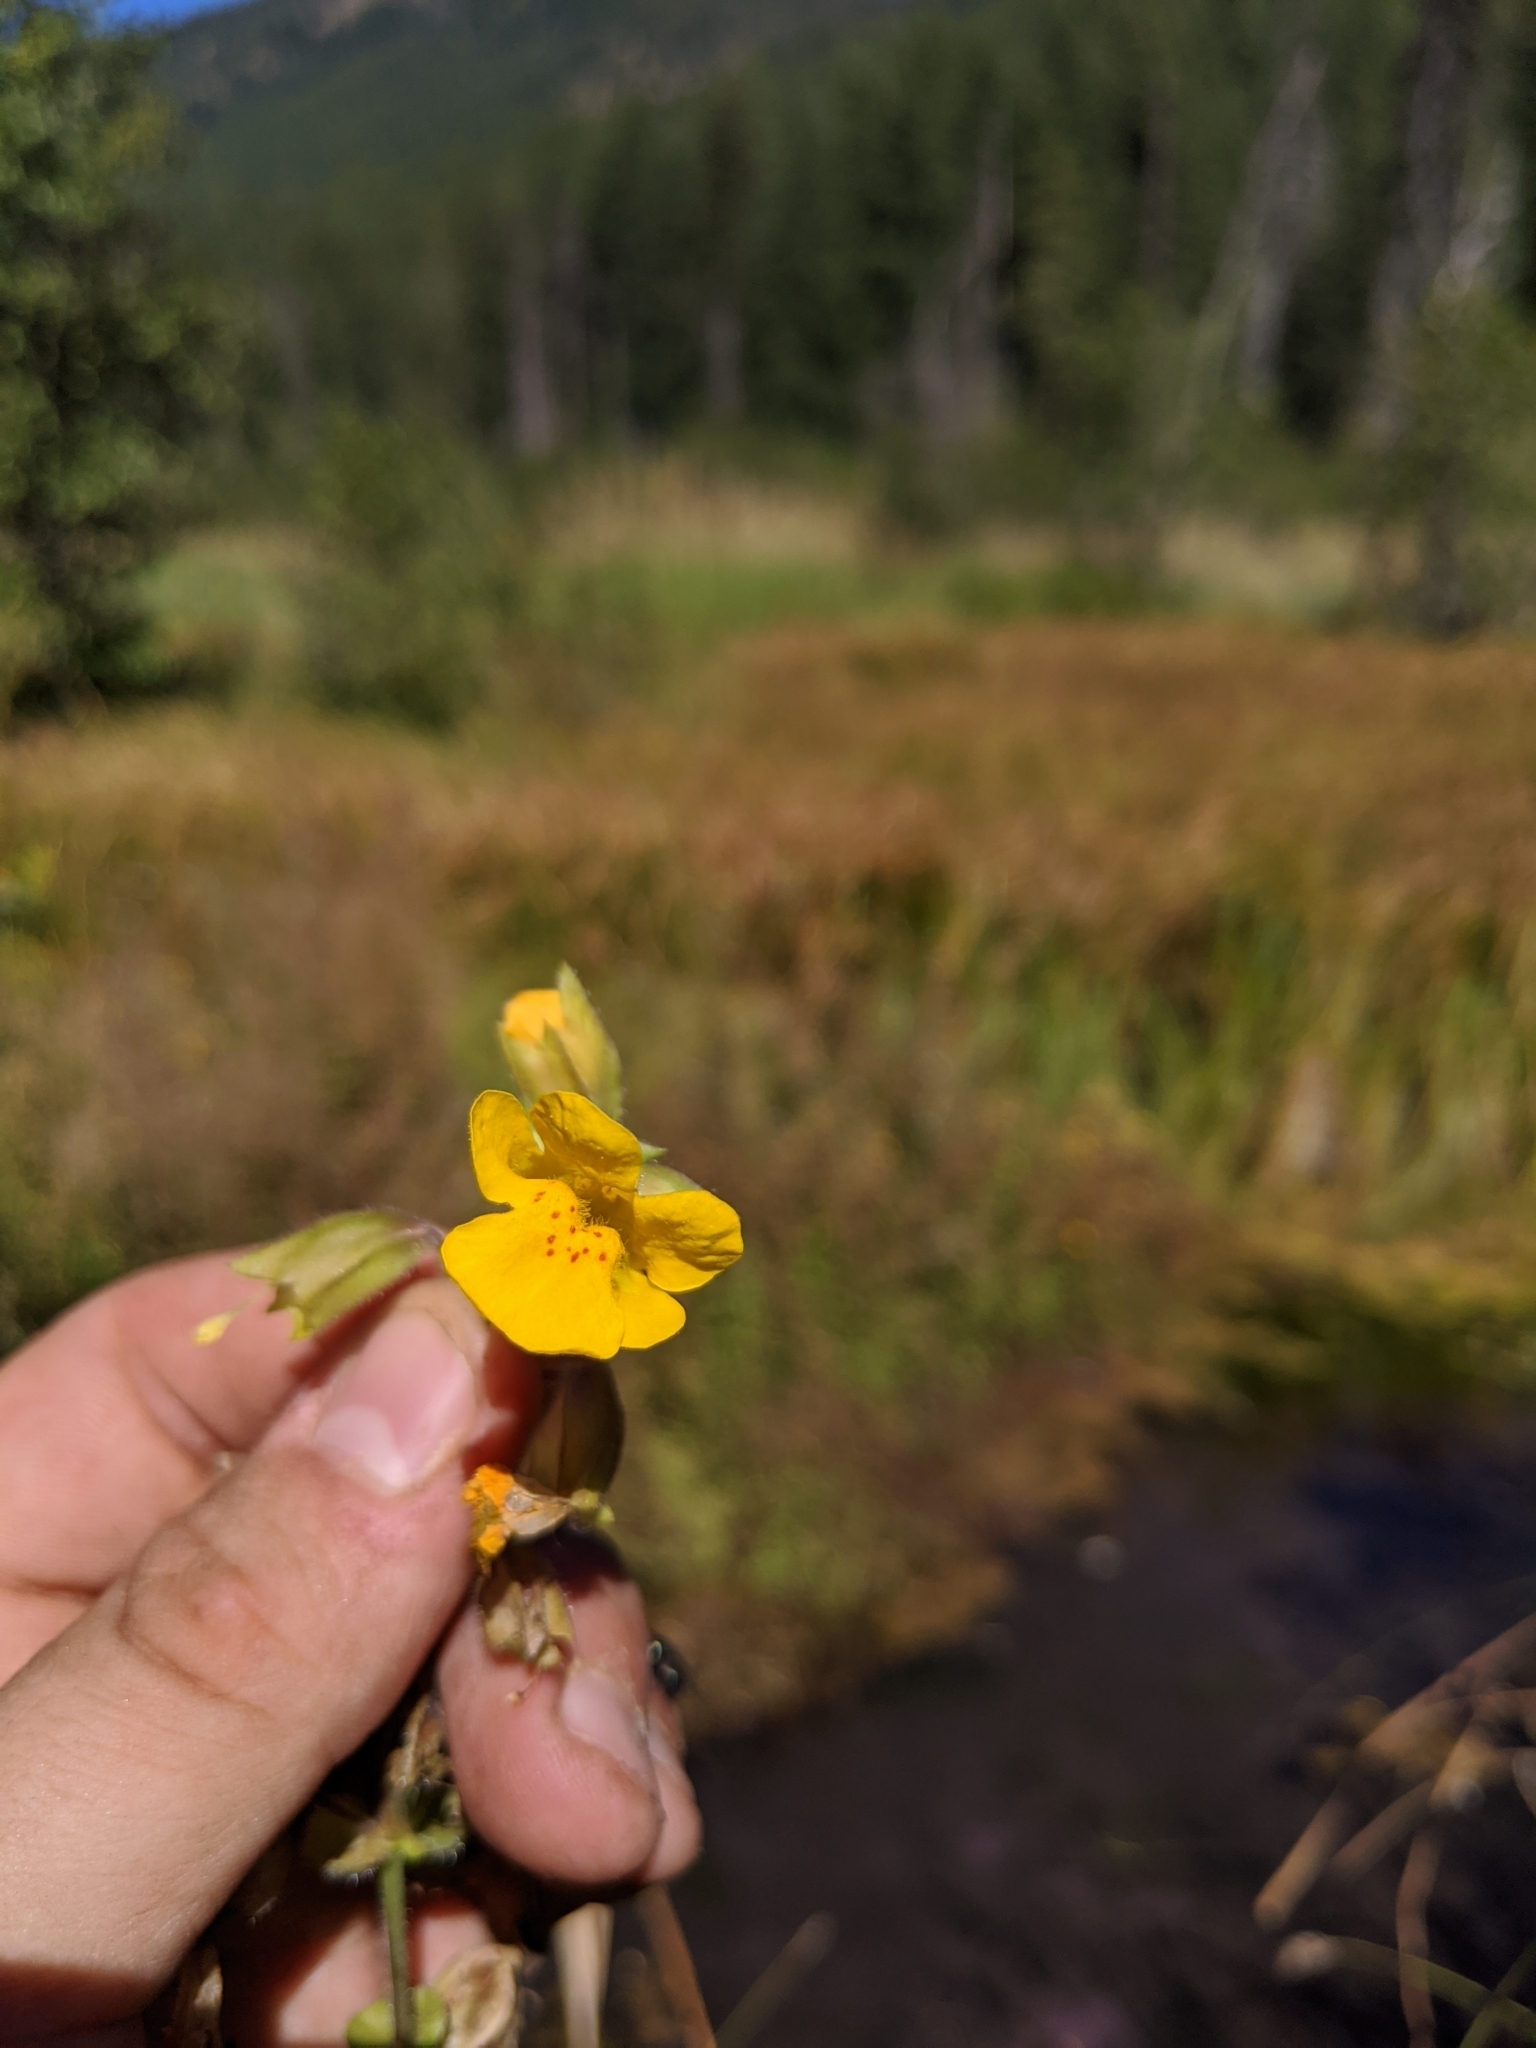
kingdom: Plantae
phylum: Tracheophyta
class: Magnoliopsida
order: Lamiales
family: Phrymaceae
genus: Erythranthe
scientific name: Erythranthe guttata
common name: Monkeyflower
